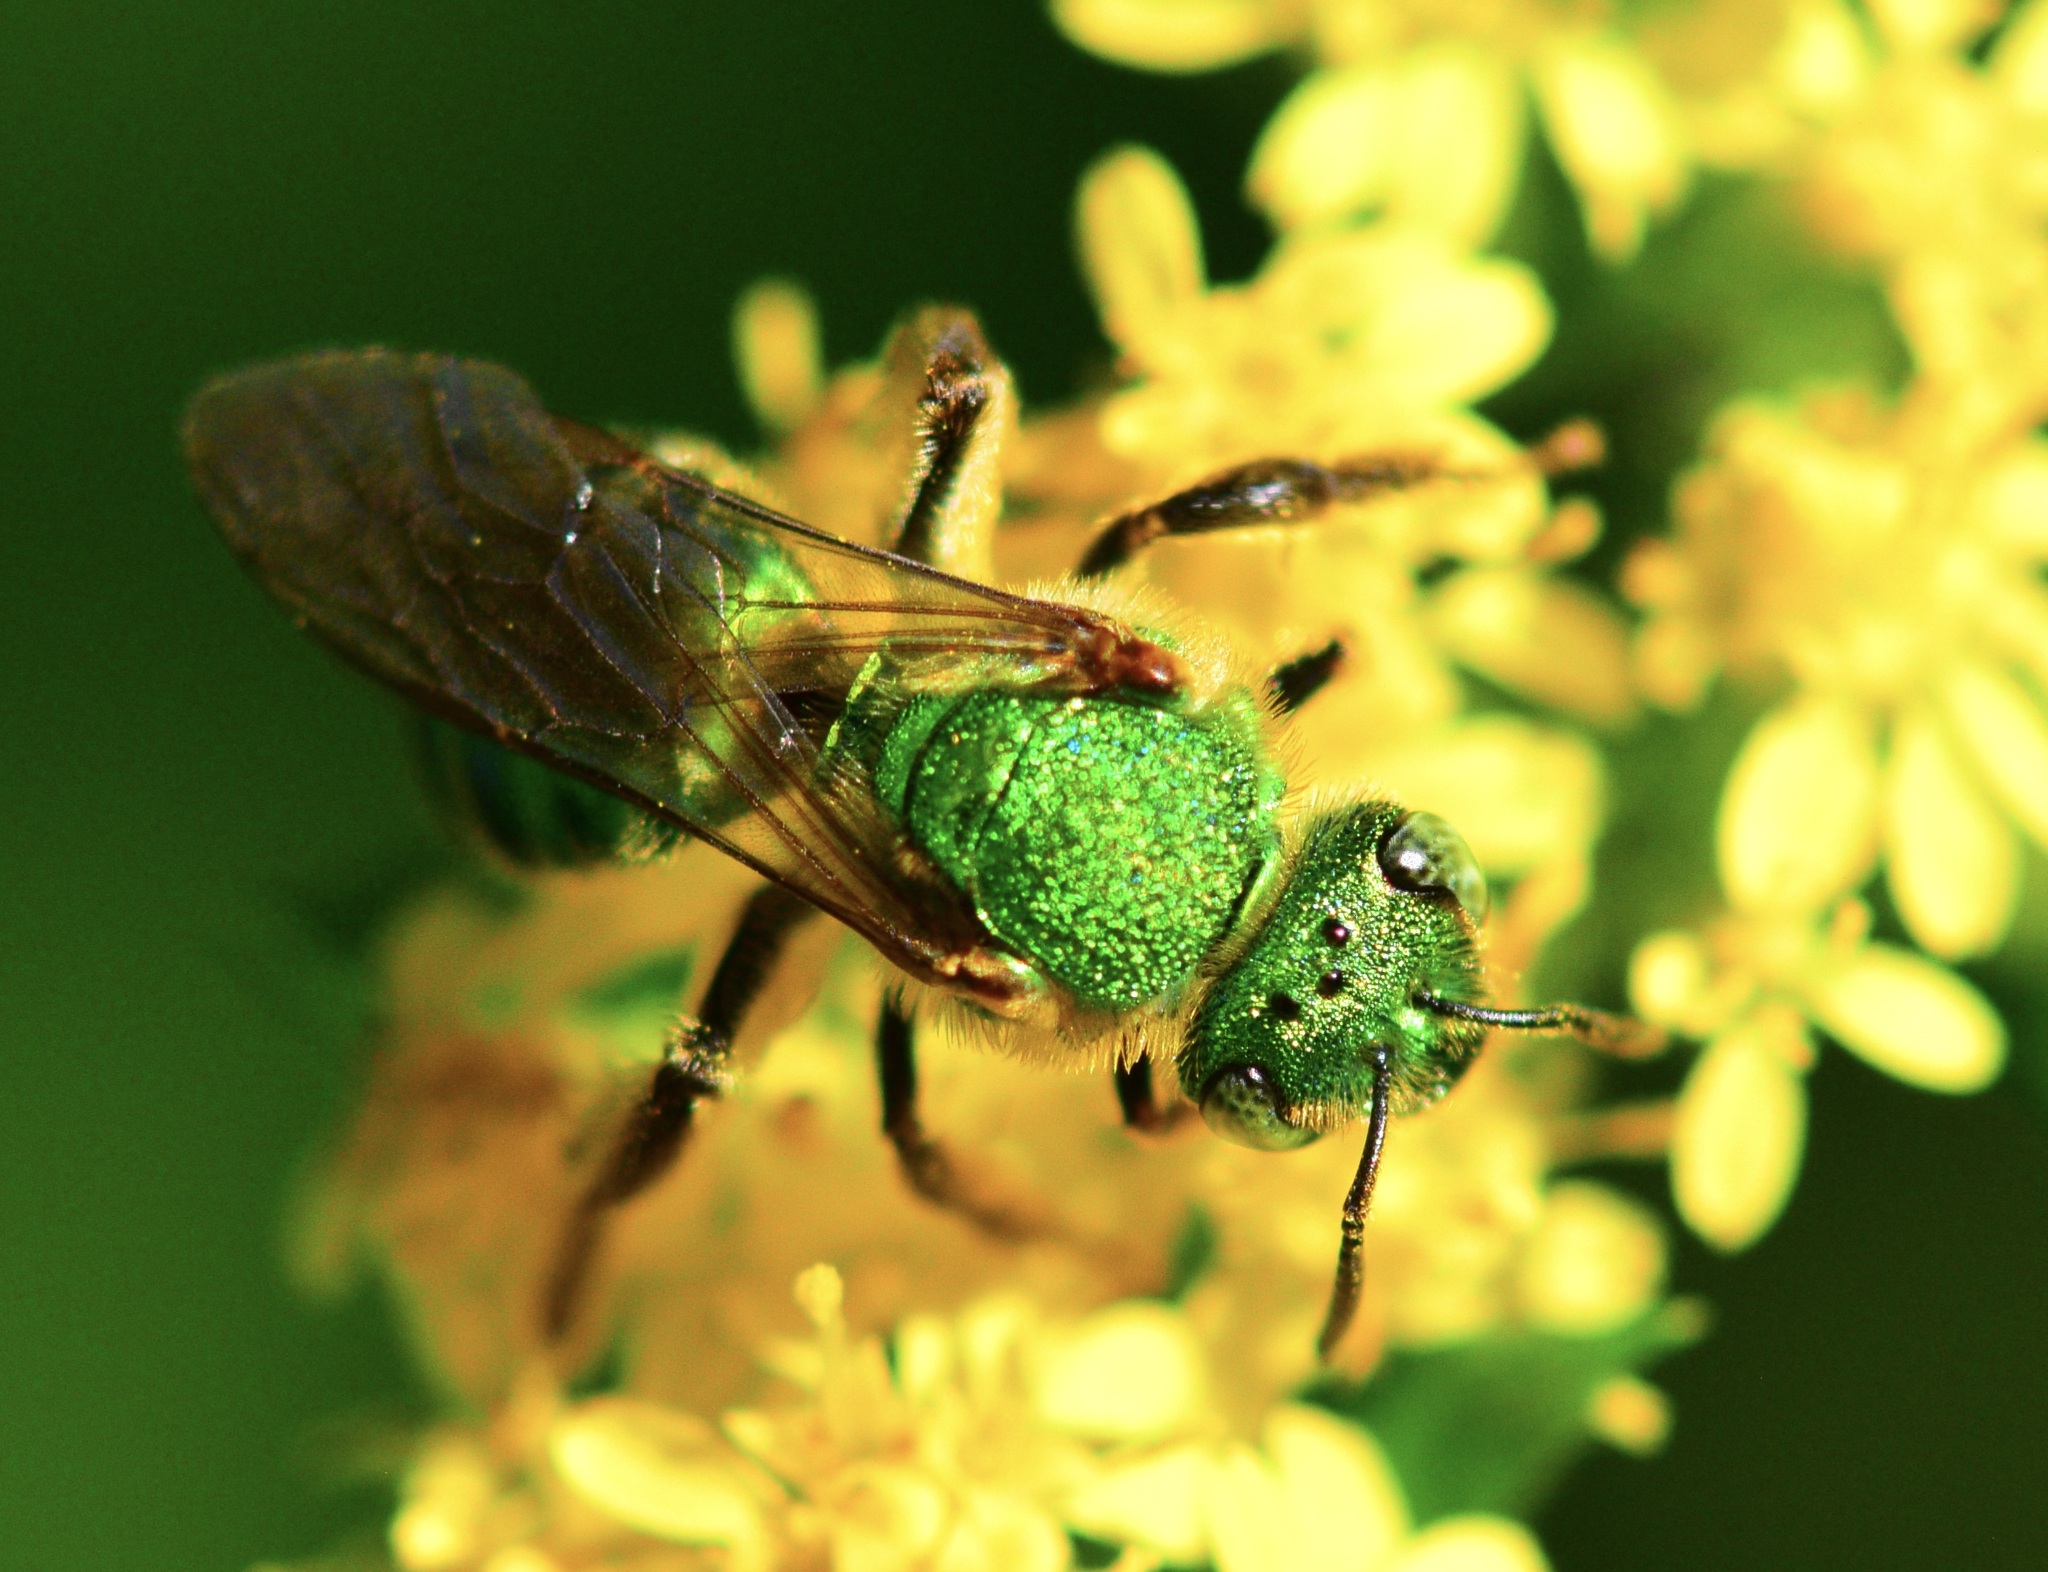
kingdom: Animalia
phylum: Arthropoda
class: Insecta
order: Hymenoptera
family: Halictidae
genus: Agapostemon
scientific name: Agapostemon sericeus
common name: Silky striped sweat bee
